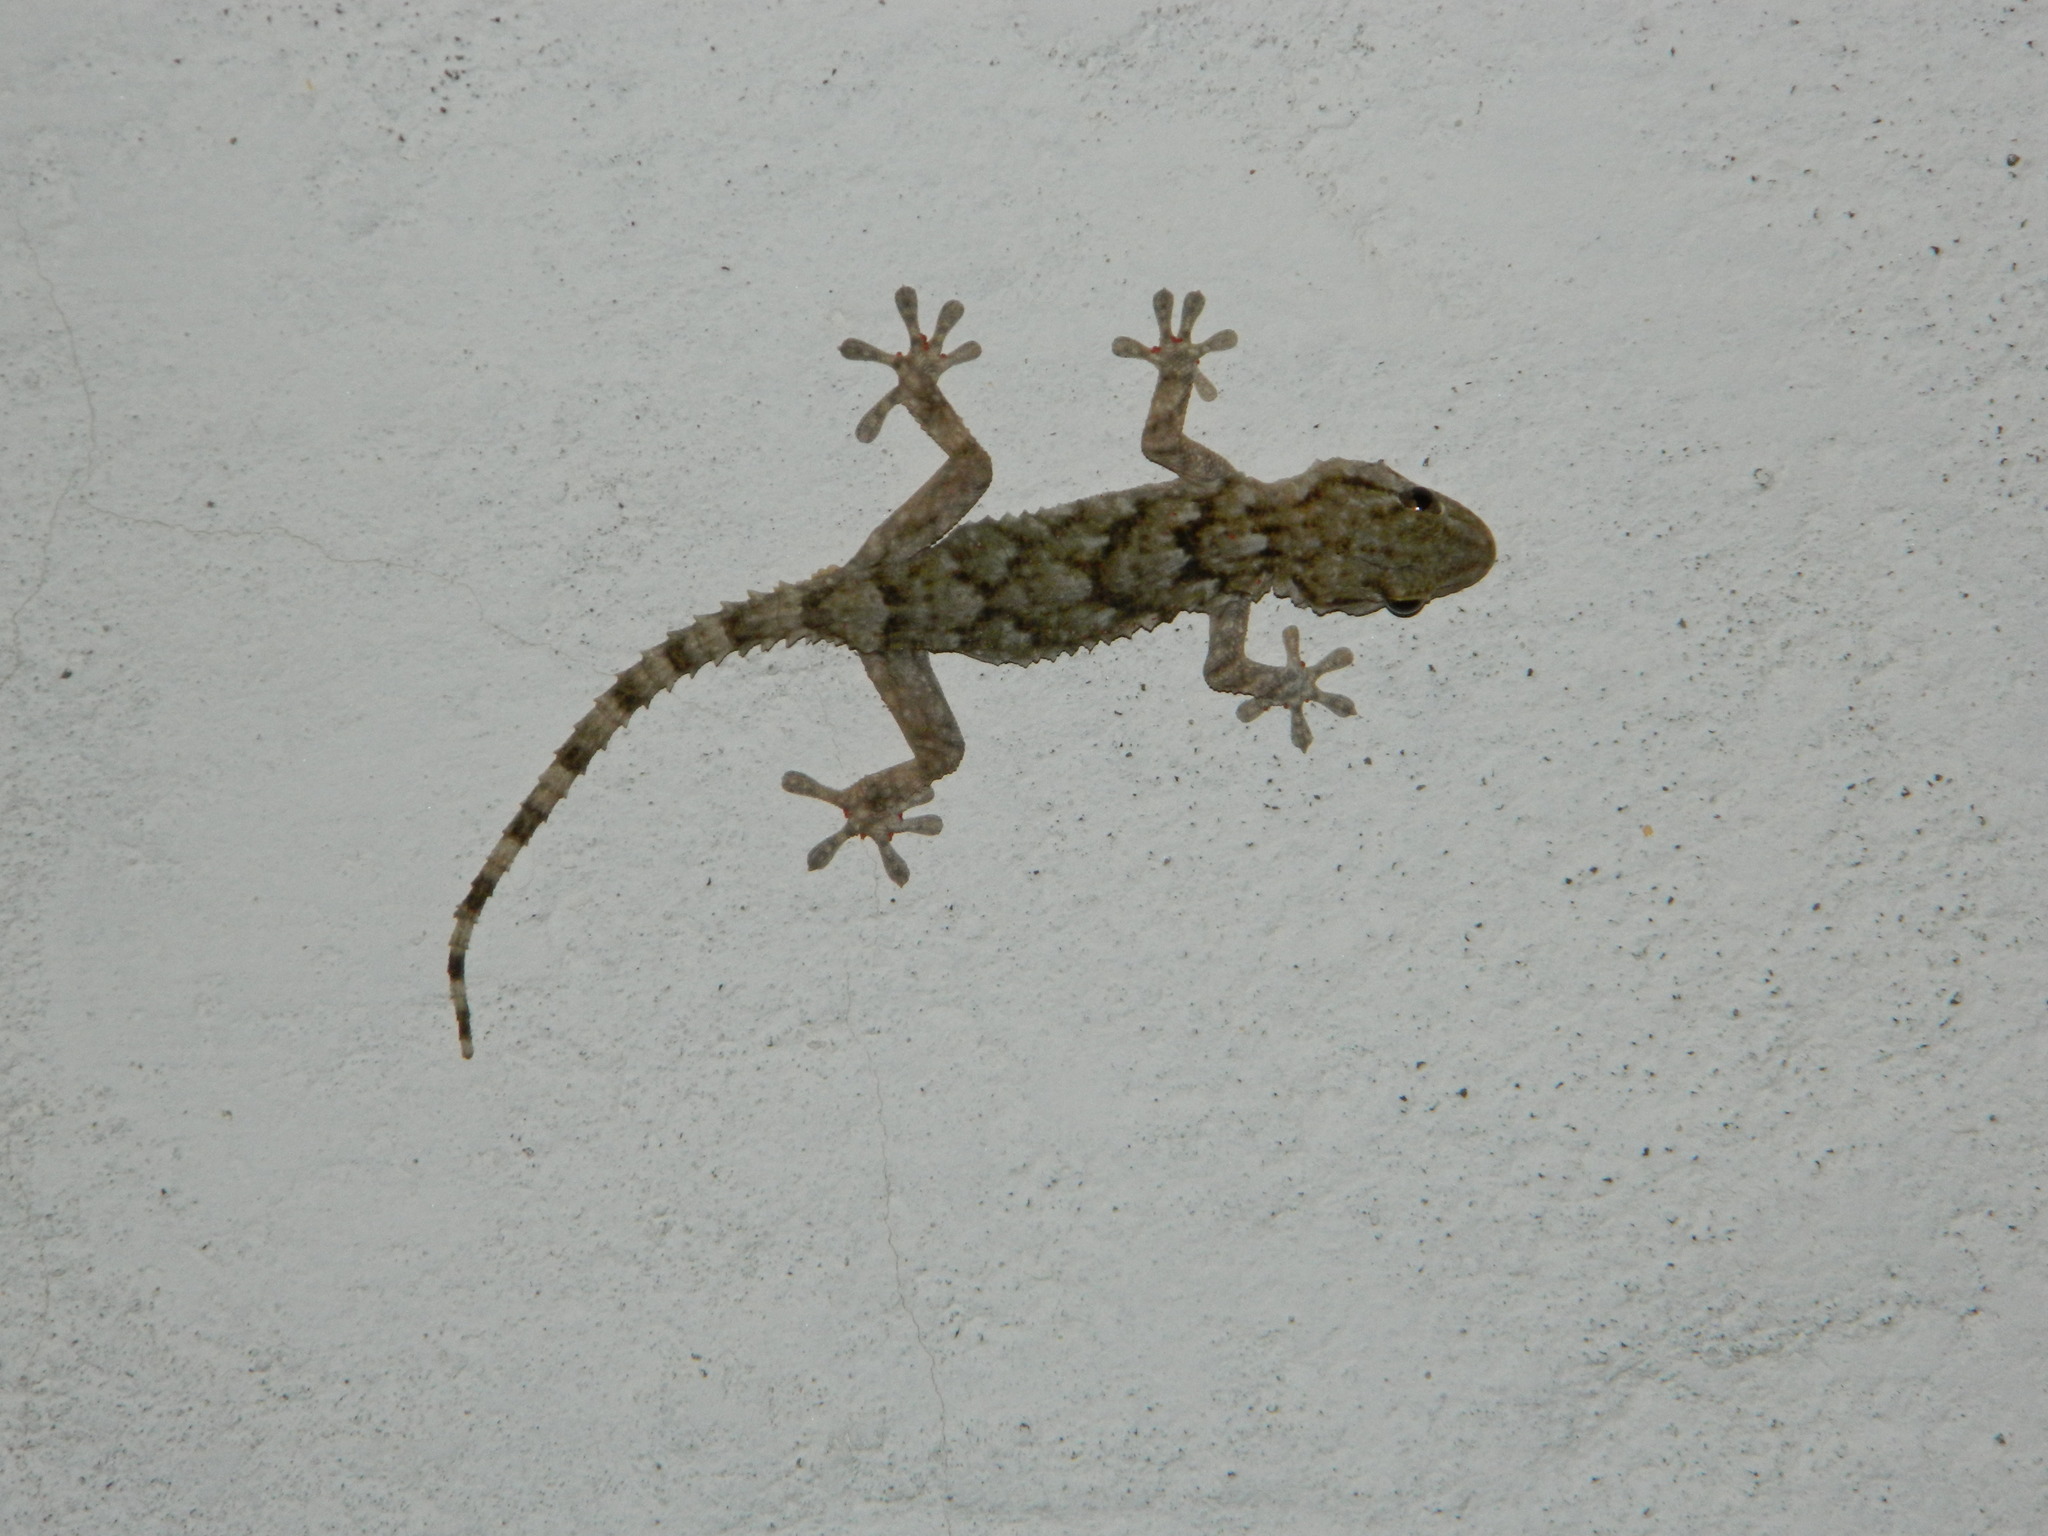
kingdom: Animalia
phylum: Chordata
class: Squamata
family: Phyllodactylidae
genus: Tarentola
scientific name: Tarentola mauritanica
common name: Moorish gecko
